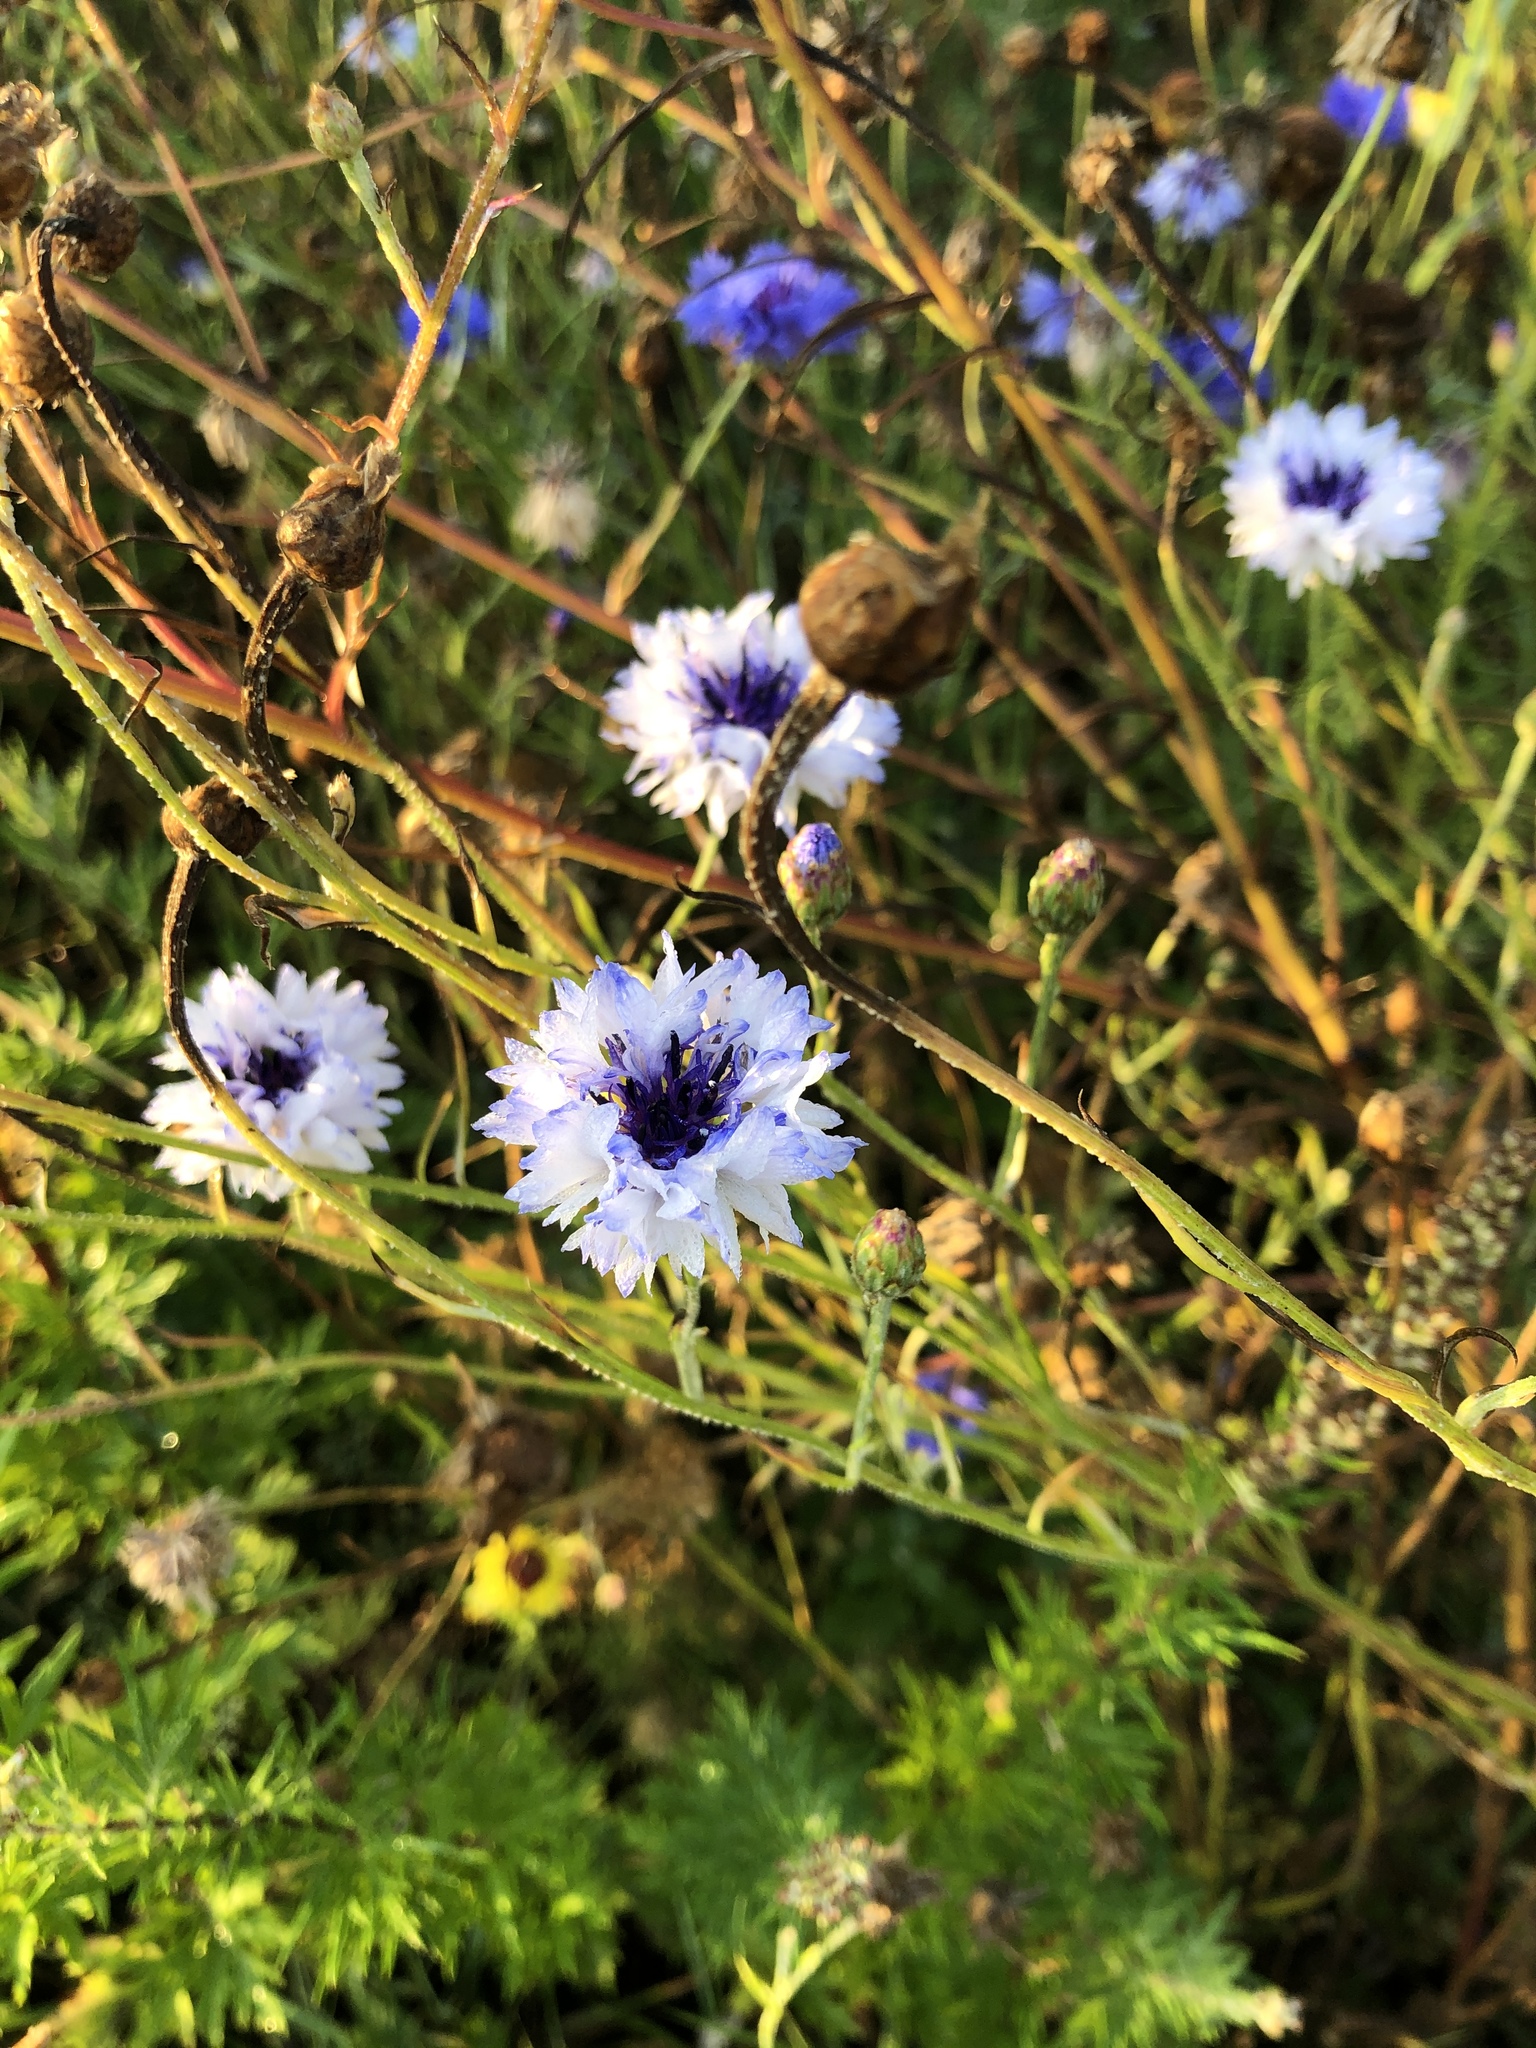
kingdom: Plantae
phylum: Tracheophyta
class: Magnoliopsida
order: Asterales
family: Asteraceae
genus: Centaurea
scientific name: Centaurea cyanus
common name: Cornflower
